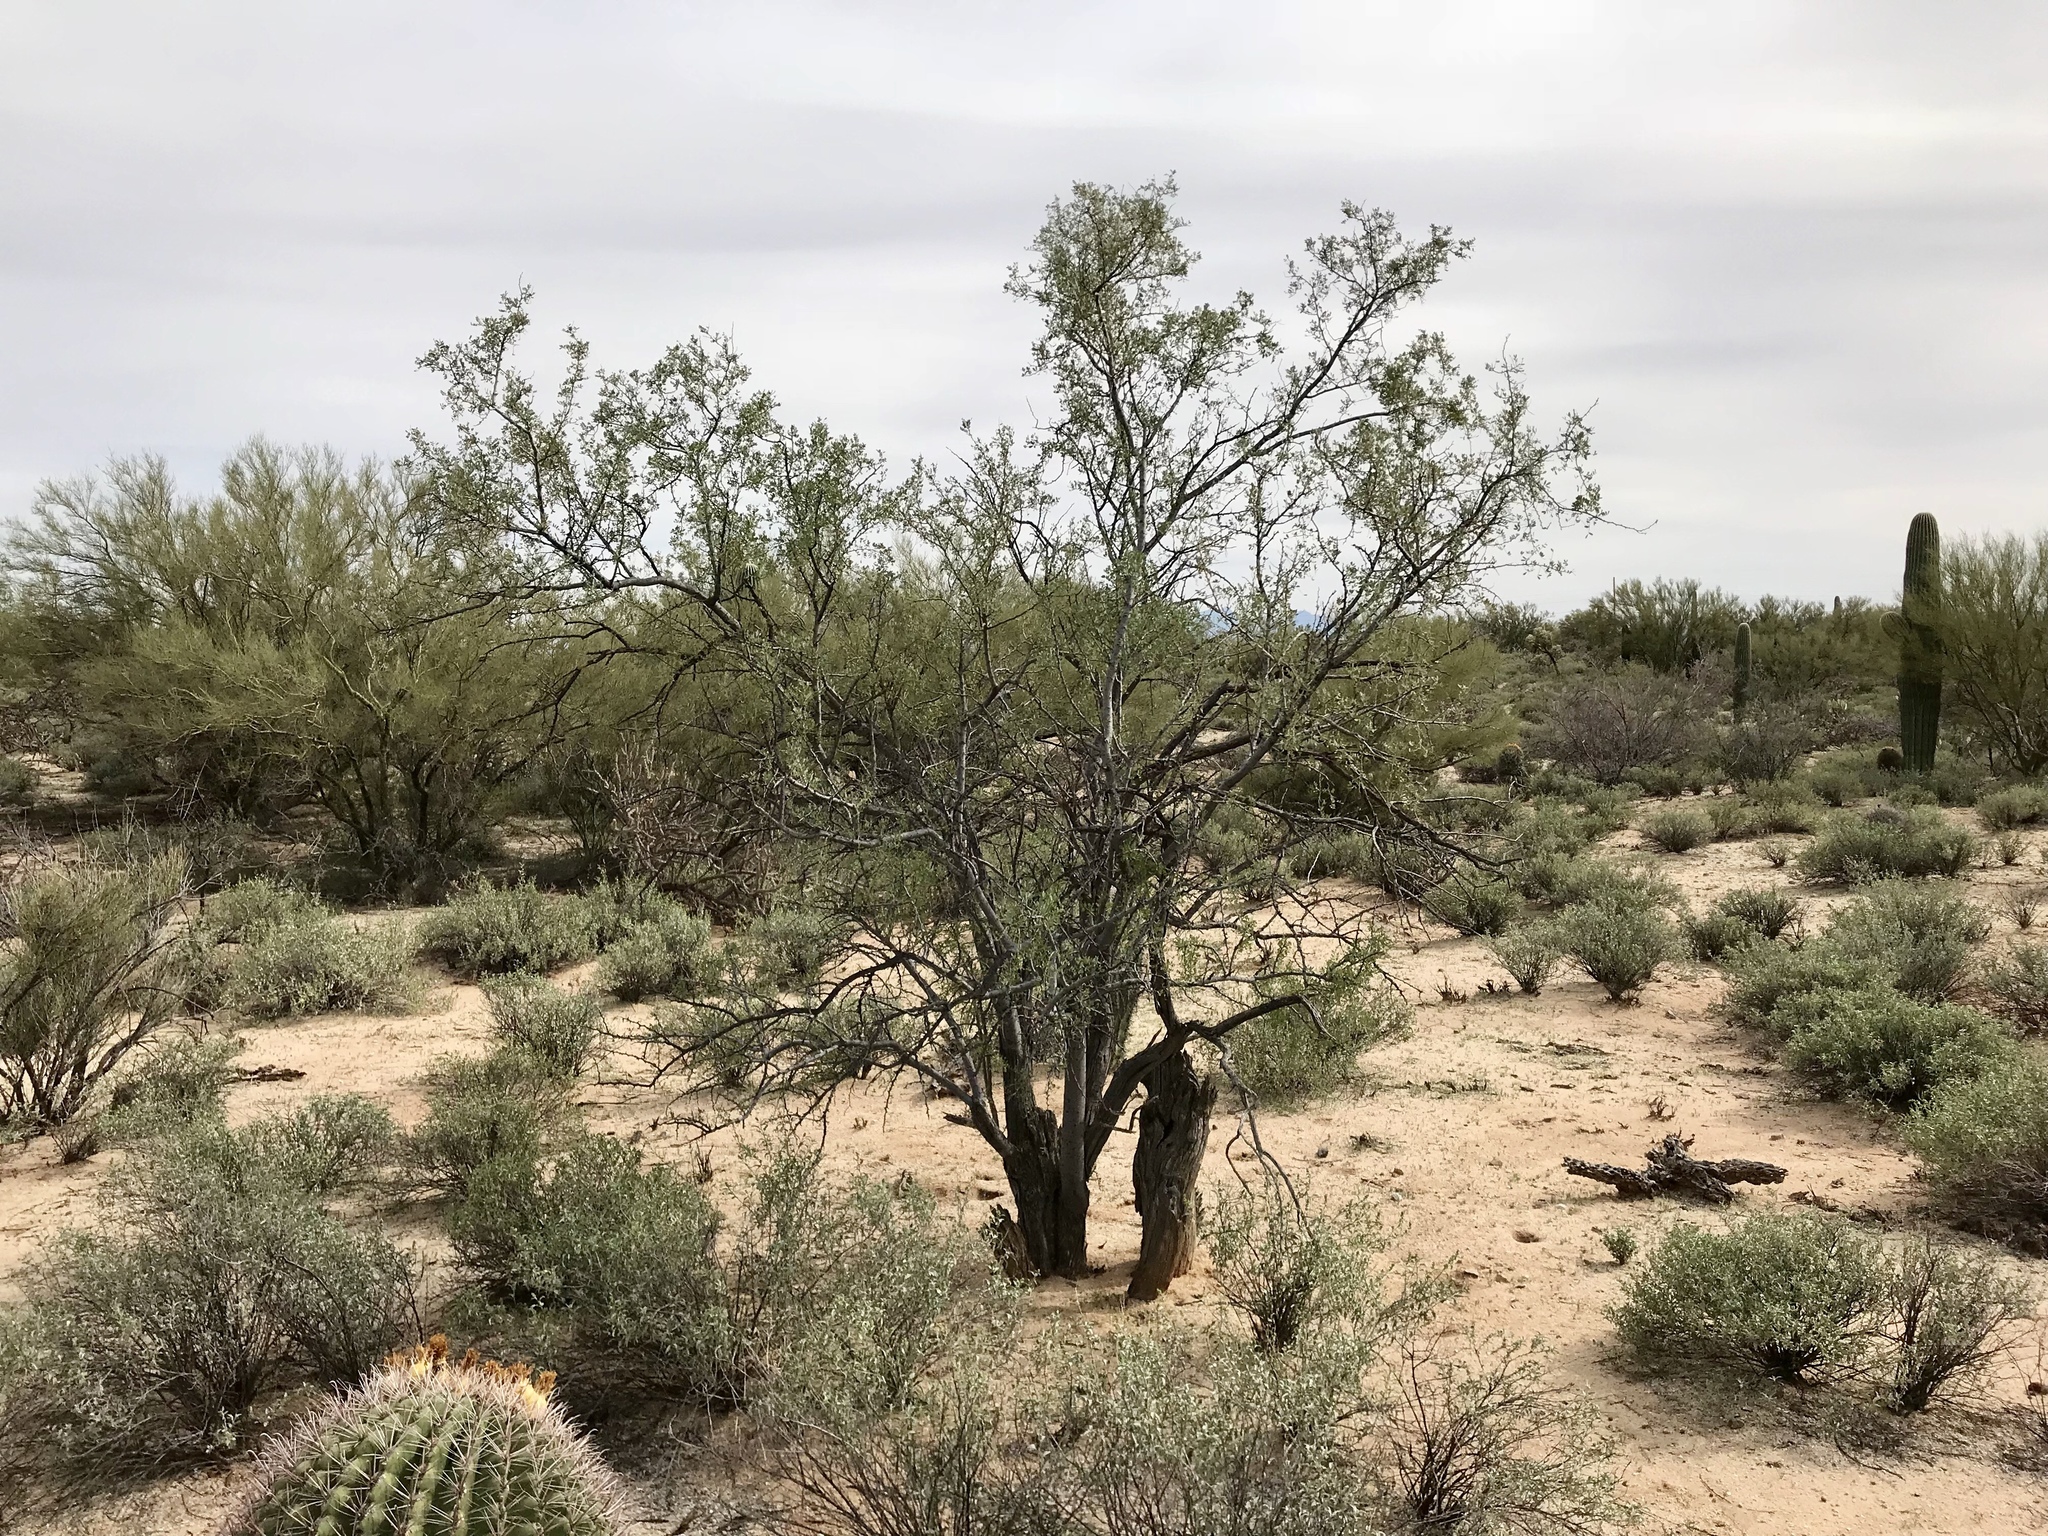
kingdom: Plantae
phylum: Tracheophyta
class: Magnoliopsida
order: Fabales
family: Fabaceae
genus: Olneya
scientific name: Olneya tesota
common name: Desert ironwood
